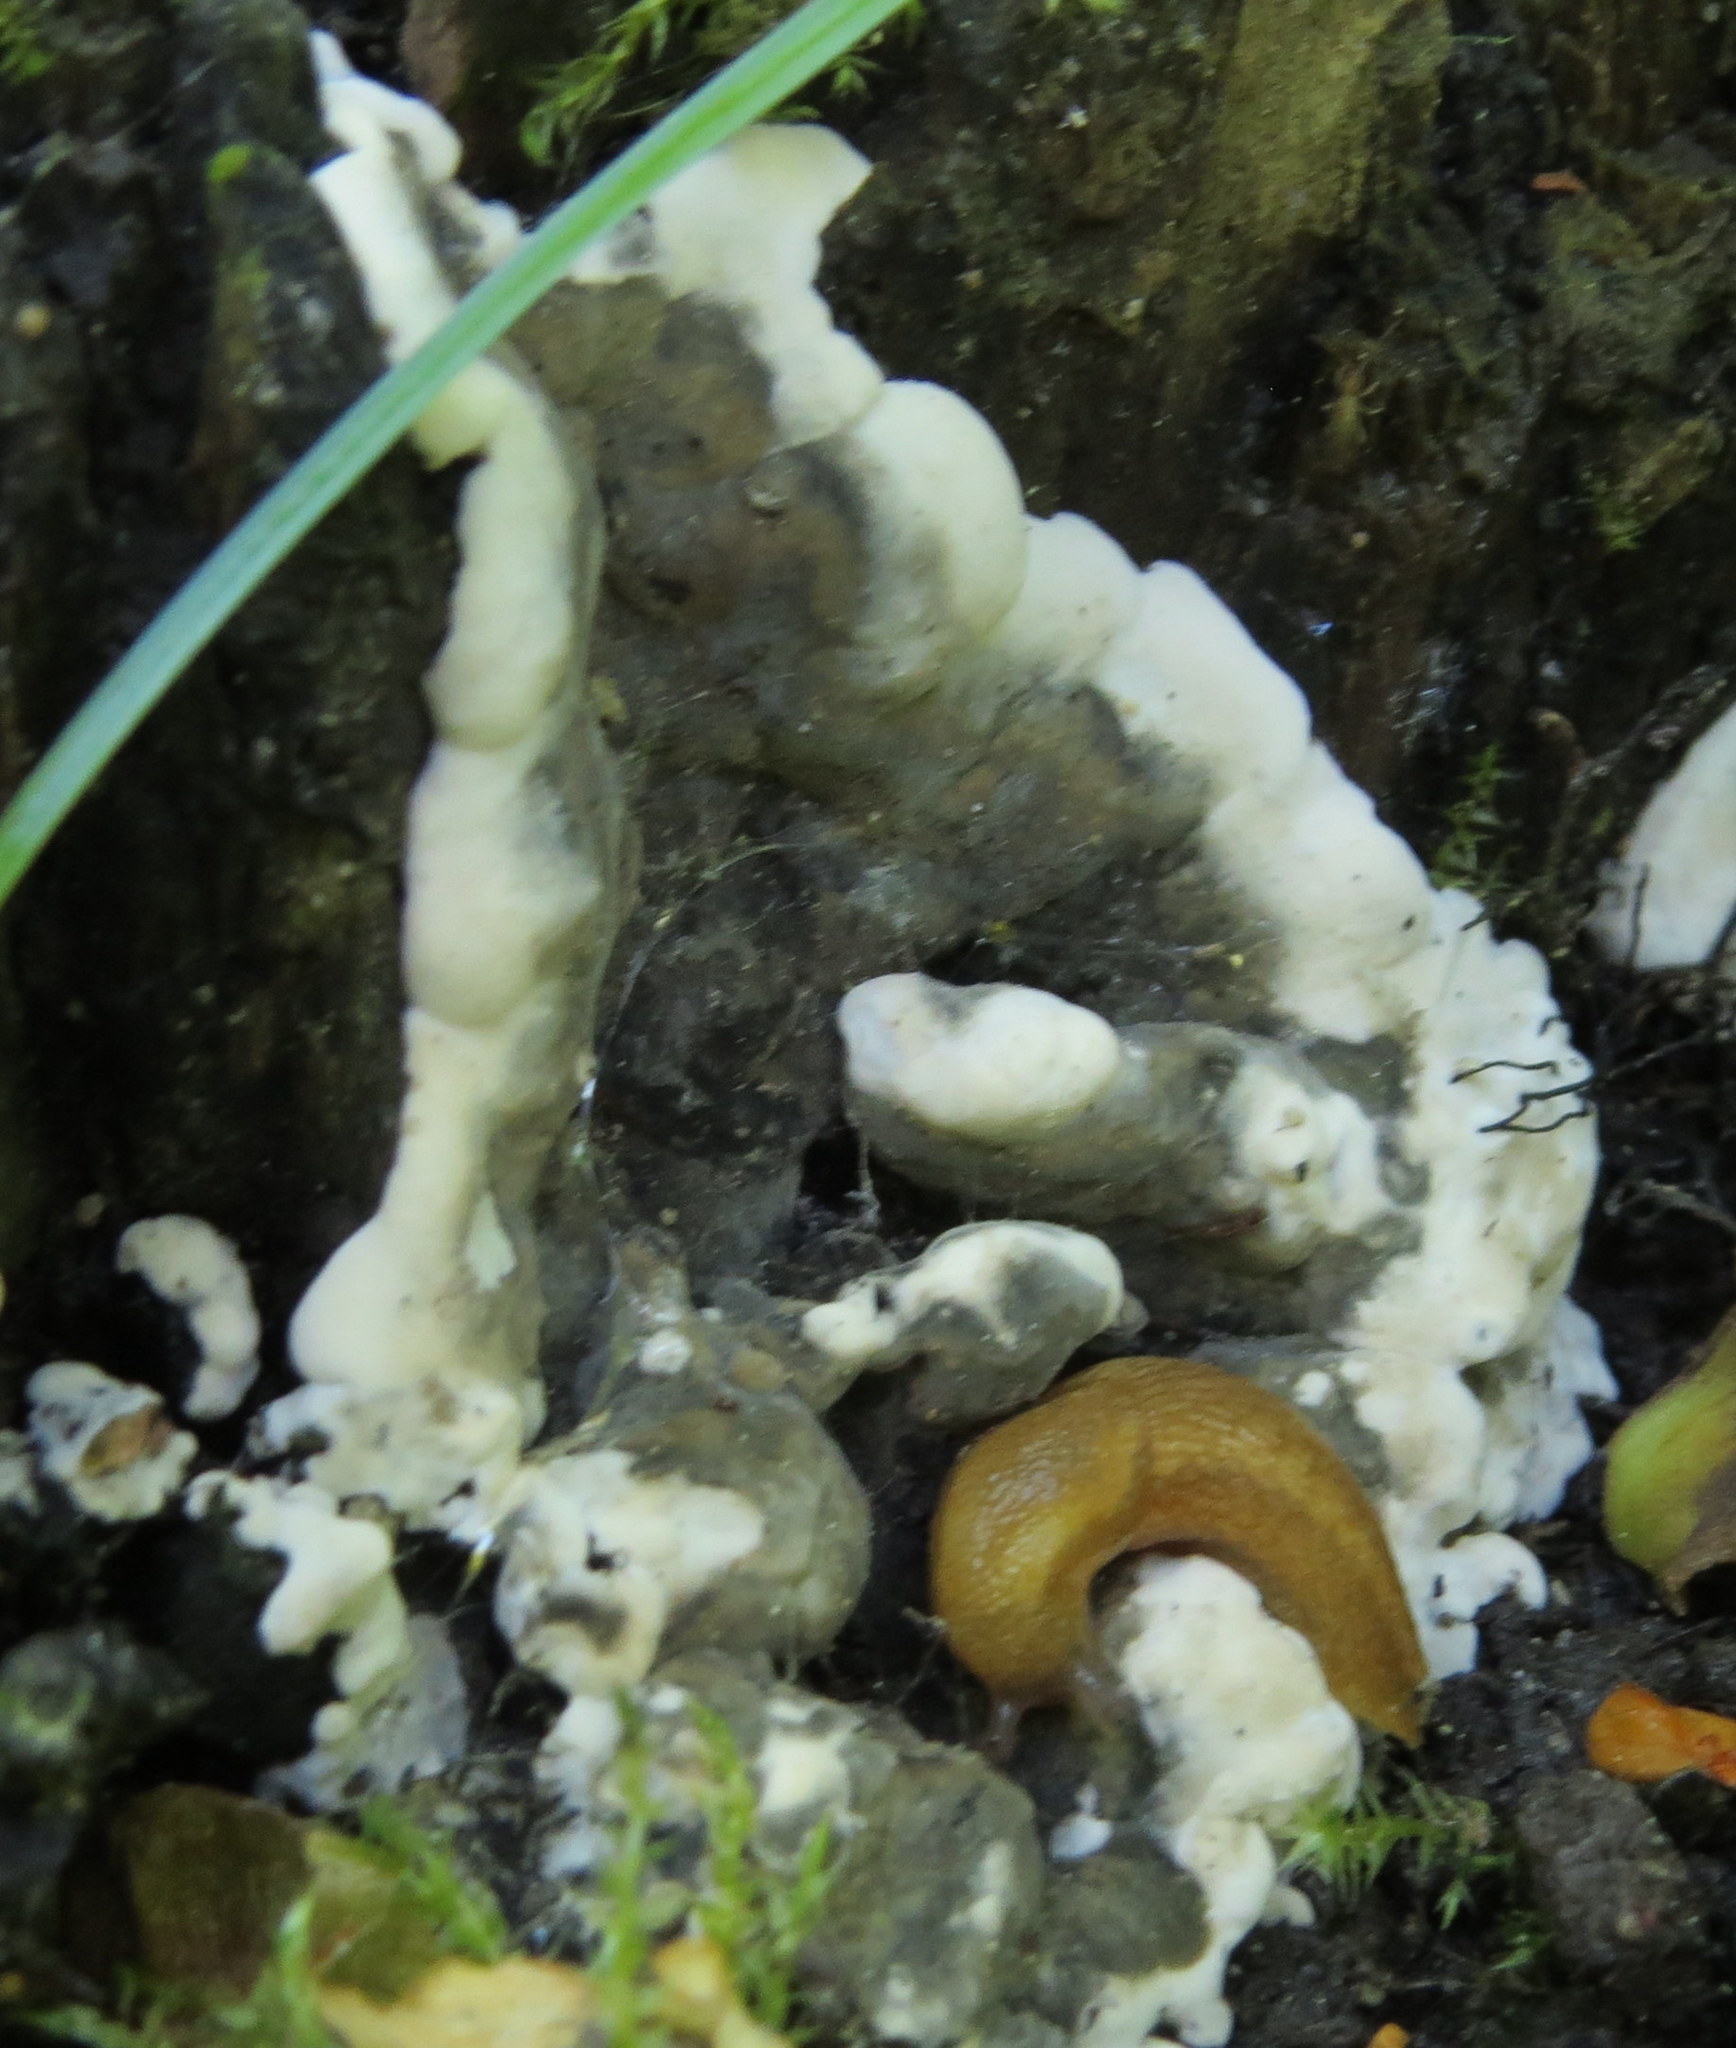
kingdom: Fungi
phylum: Ascomycota
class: Sordariomycetes
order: Xylariales
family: Xylariaceae
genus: Kretzschmaria
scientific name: Kretzschmaria deusta
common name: Brittle cinder
